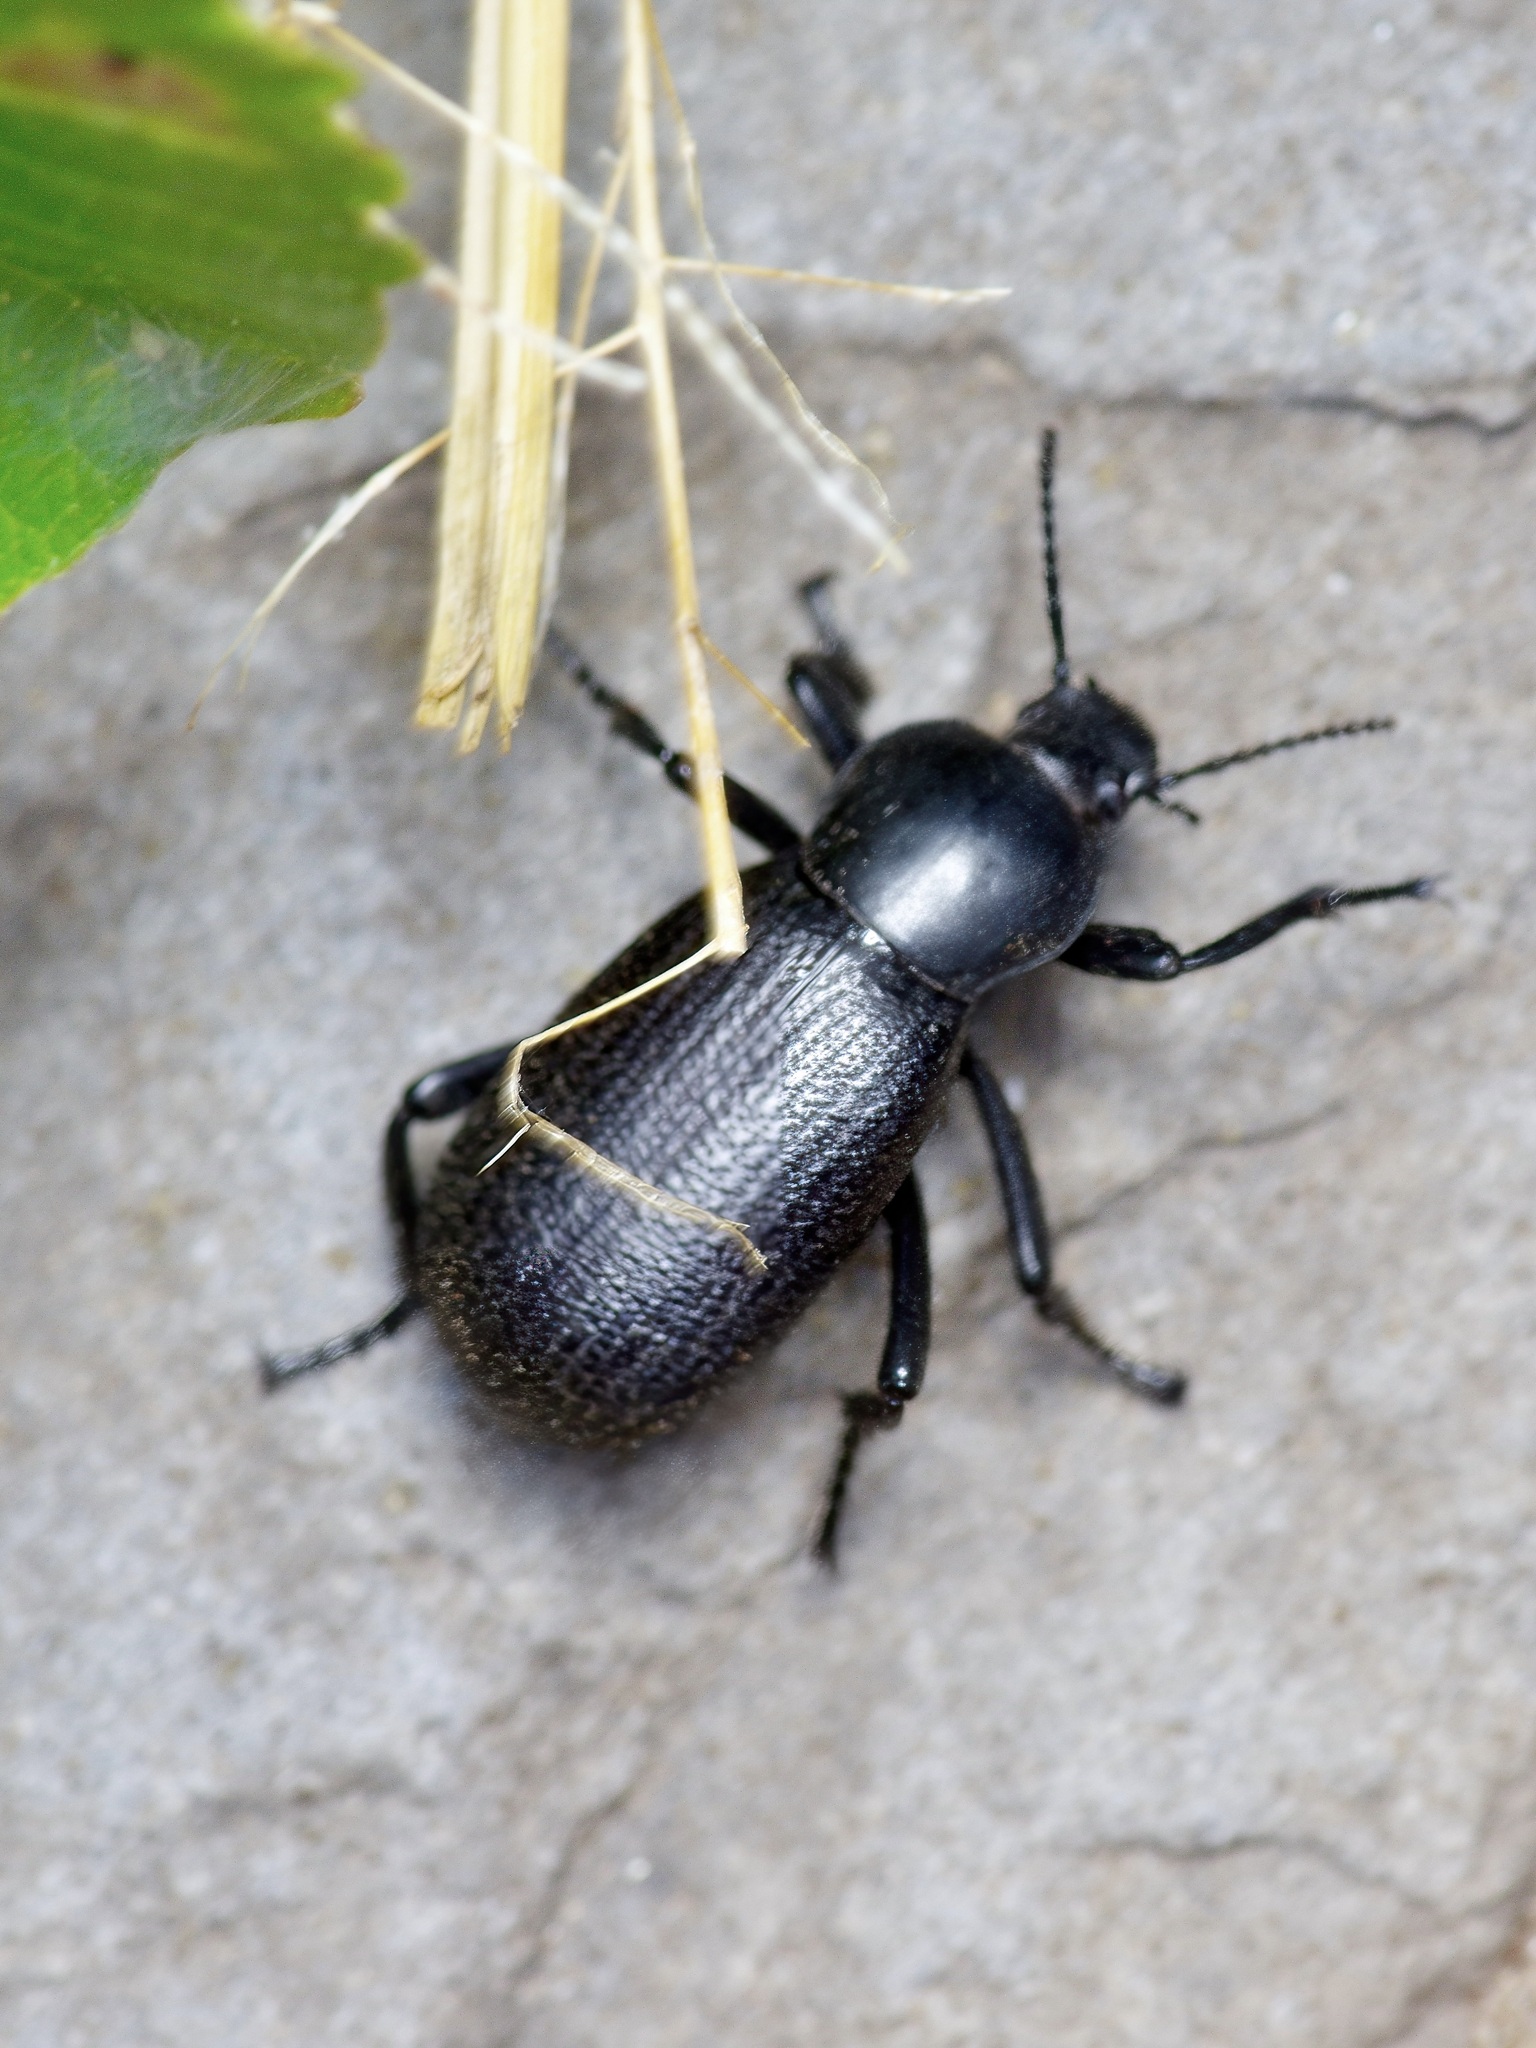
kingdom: Animalia
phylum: Arthropoda
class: Insecta
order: Coleoptera
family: Tenebrionidae
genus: Eleodes
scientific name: Eleodes obscura
